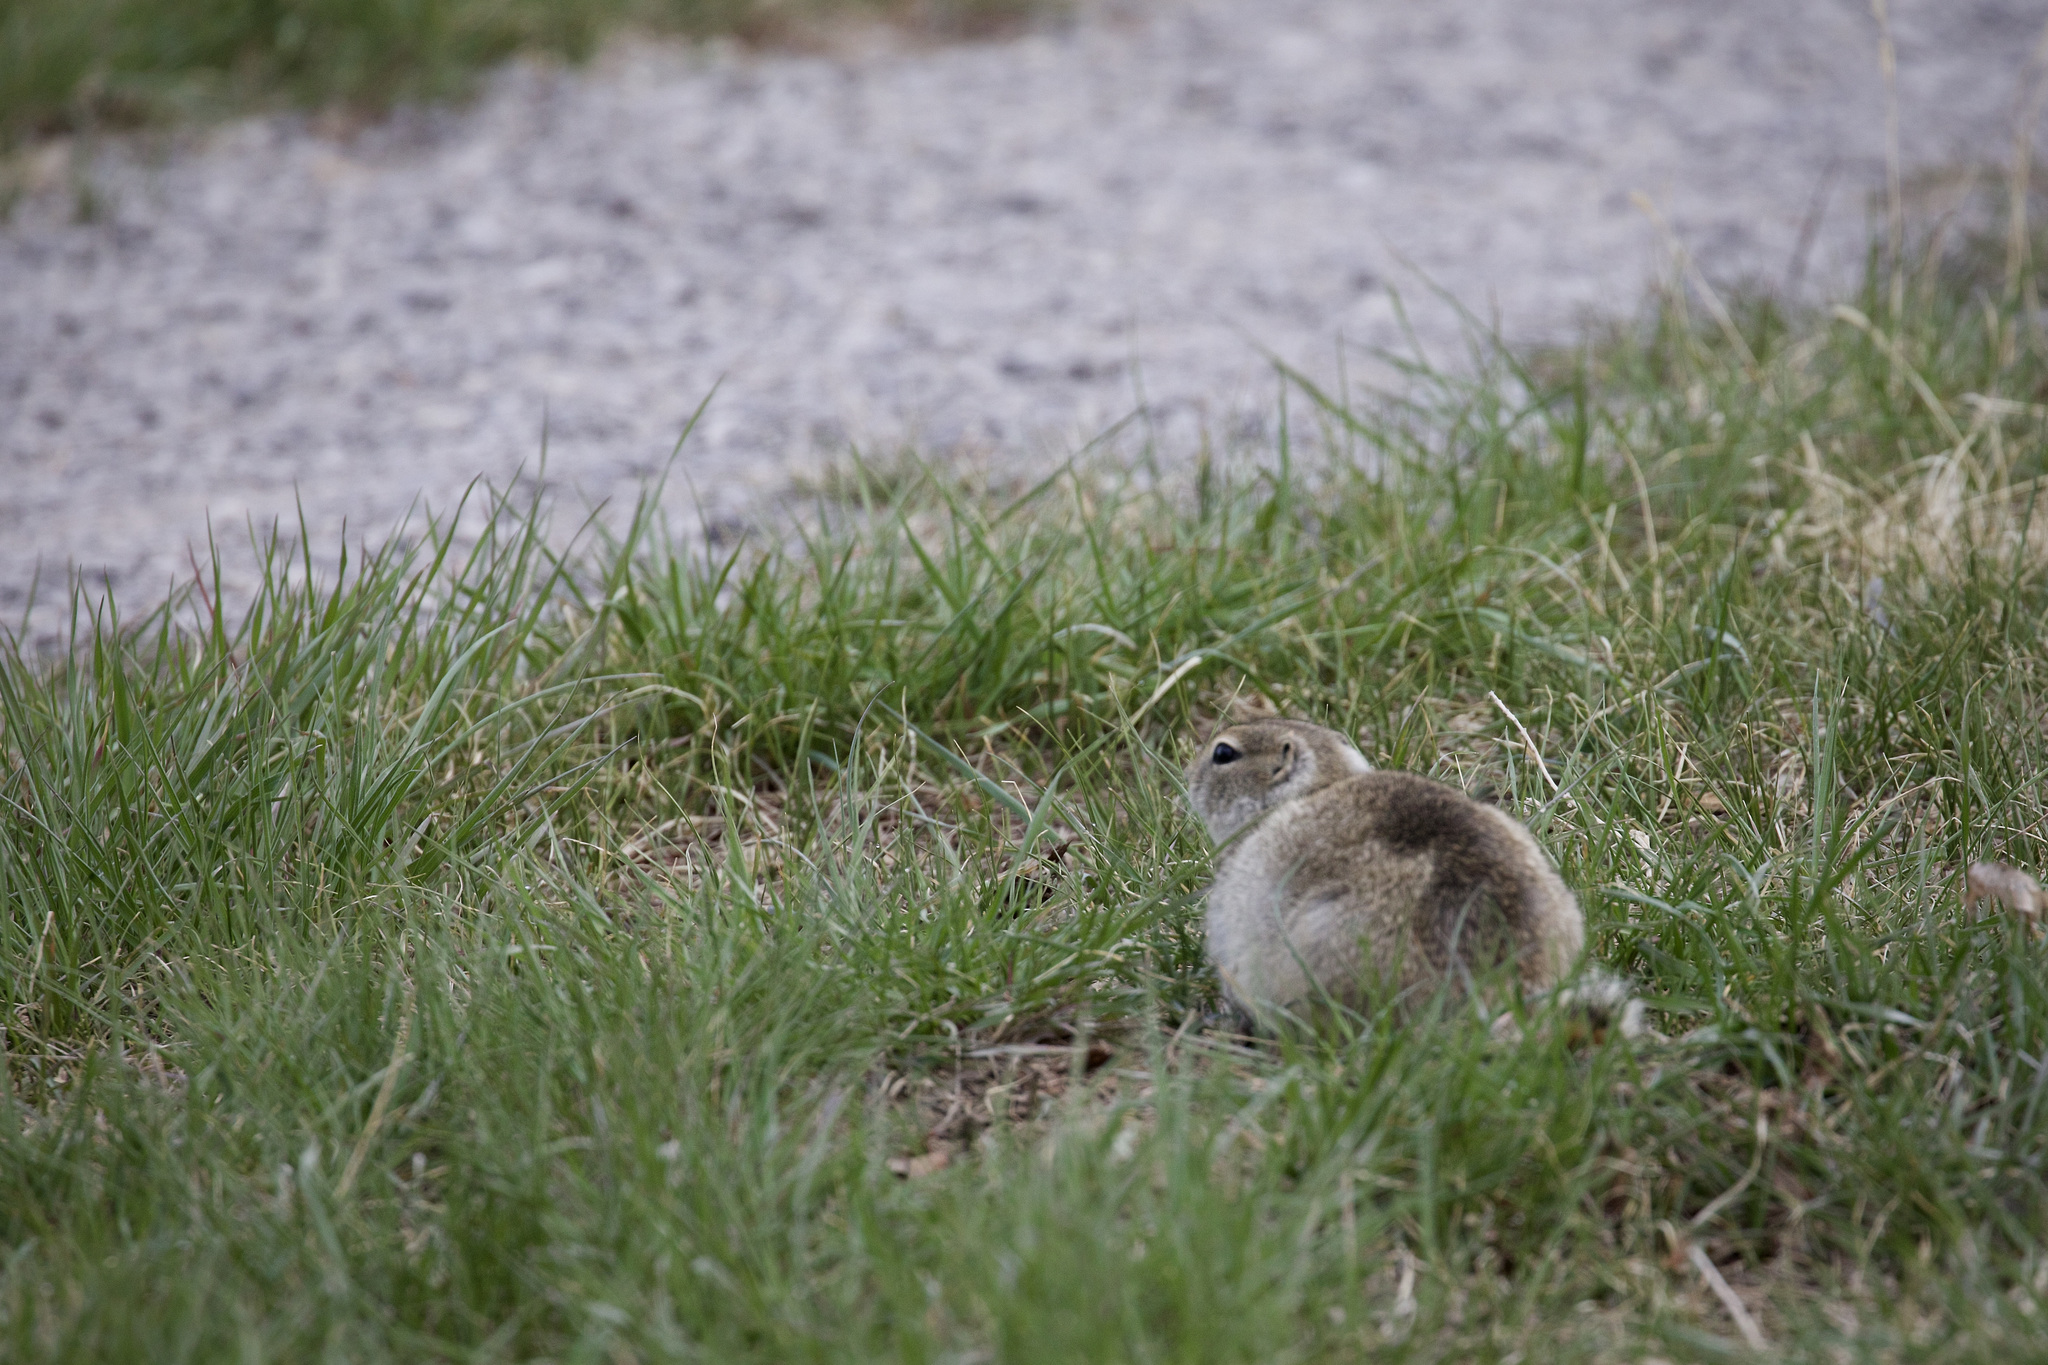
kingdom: Animalia
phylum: Chordata
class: Mammalia
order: Rodentia
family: Sciuridae
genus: Urocitellus
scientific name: Urocitellus richardsonii
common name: Richardson's ground squirrel
